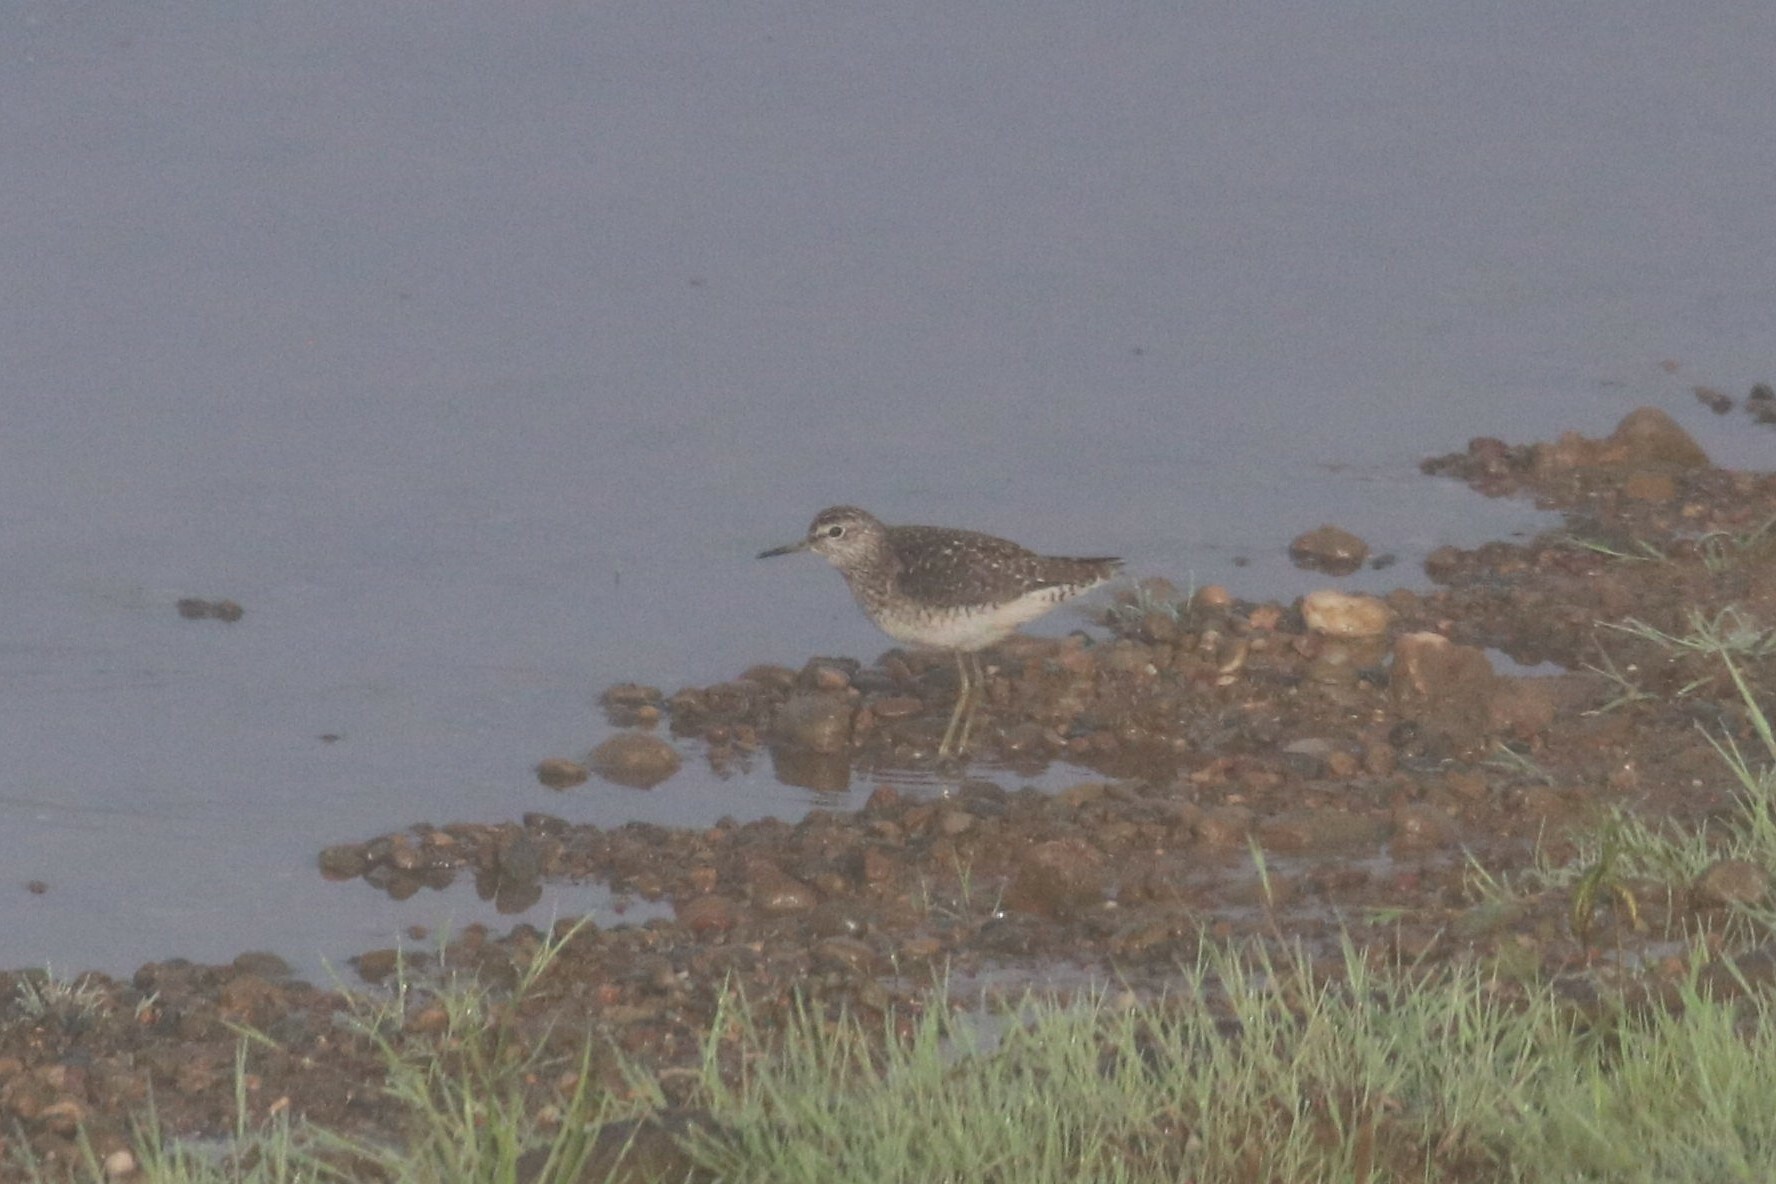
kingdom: Animalia
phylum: Chordata
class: Aves
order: Charadriiformes
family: Scolopacidae
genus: Tringa
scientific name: Tringa glareola
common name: Wood sandpiper
